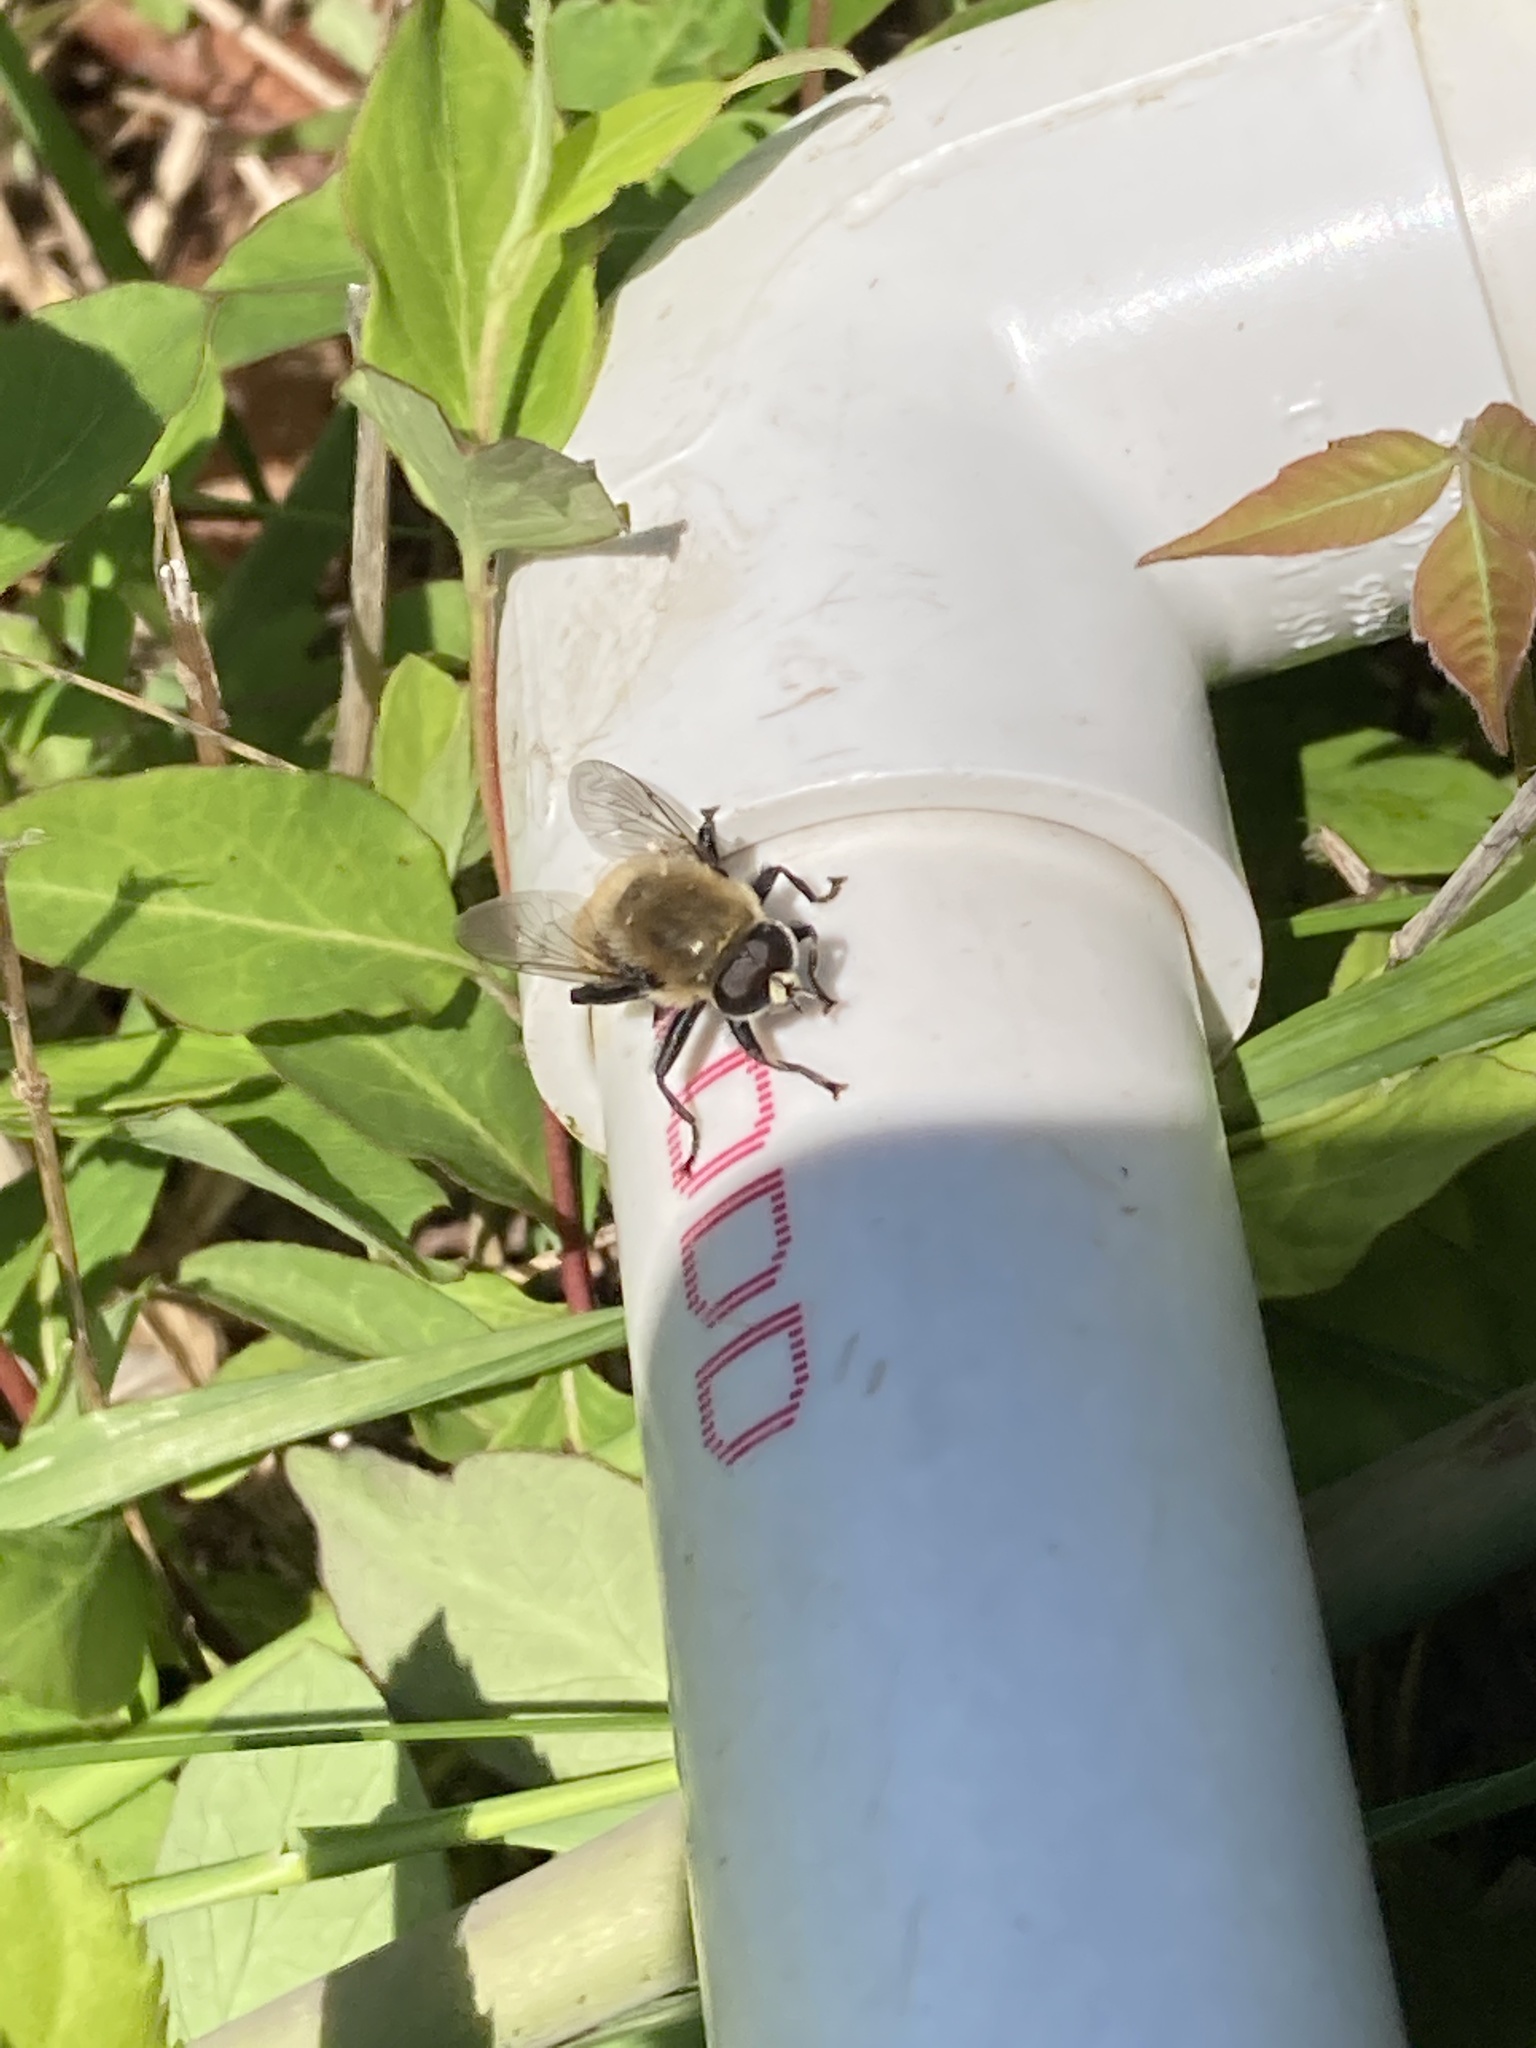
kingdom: Animalia
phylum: Arthropoda
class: Insecta
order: Diptera
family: Syrphidae
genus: Merodon
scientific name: Merodon equestris
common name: Greater bulb-fly
